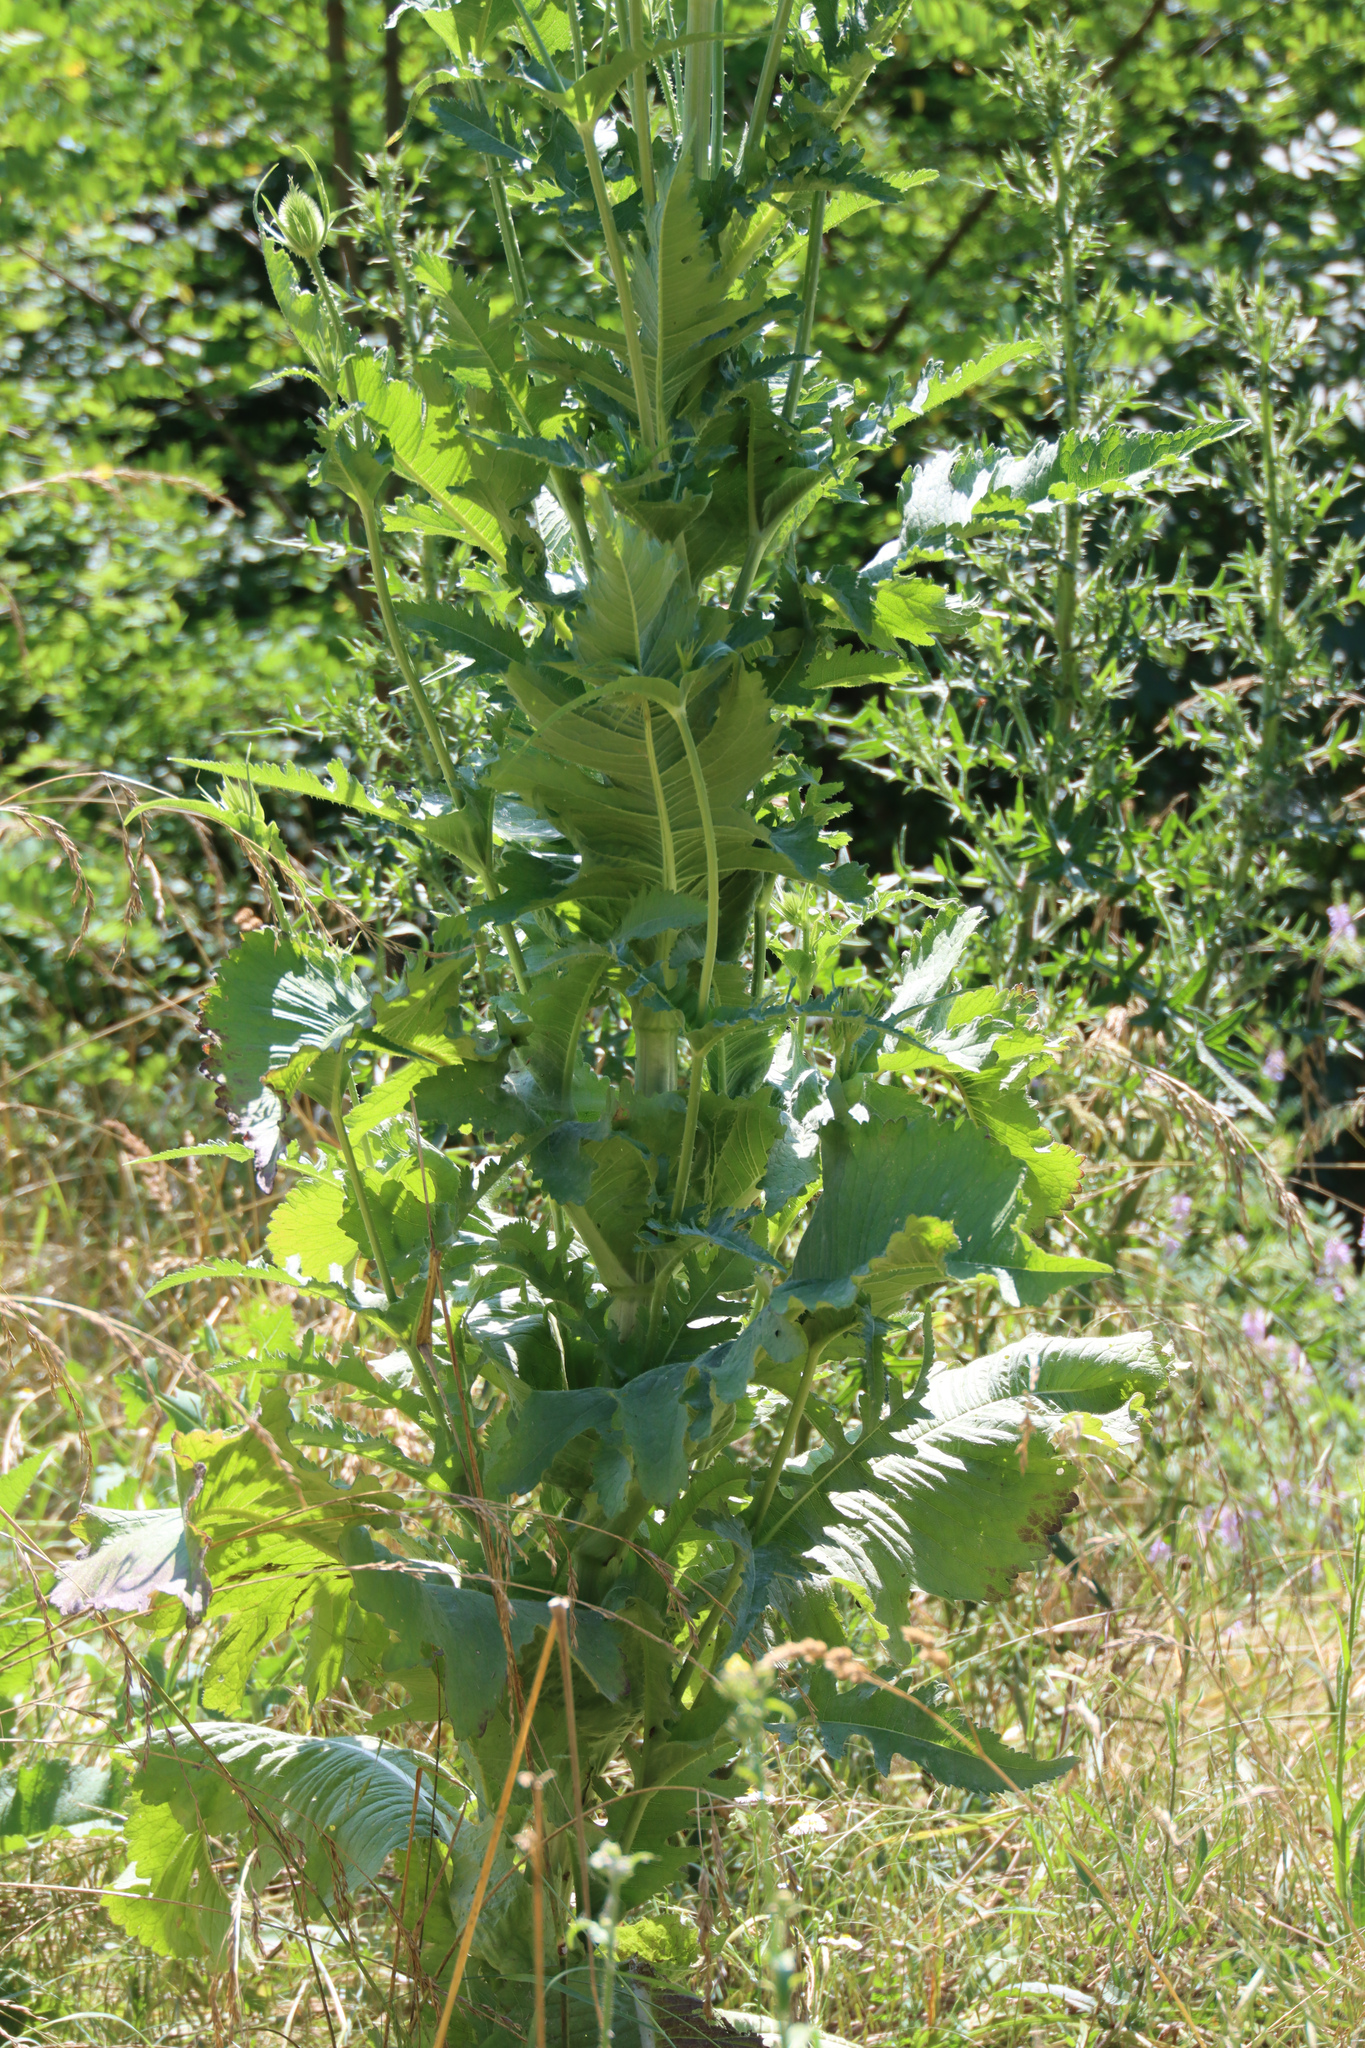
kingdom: Plantae
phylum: Tracheophyta
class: Magnoliopsida
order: Dipsacales
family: Caprifoliaceae
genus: Dipsacus
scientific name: Dipsacus laciniatus
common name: Cut-leaved teasel
